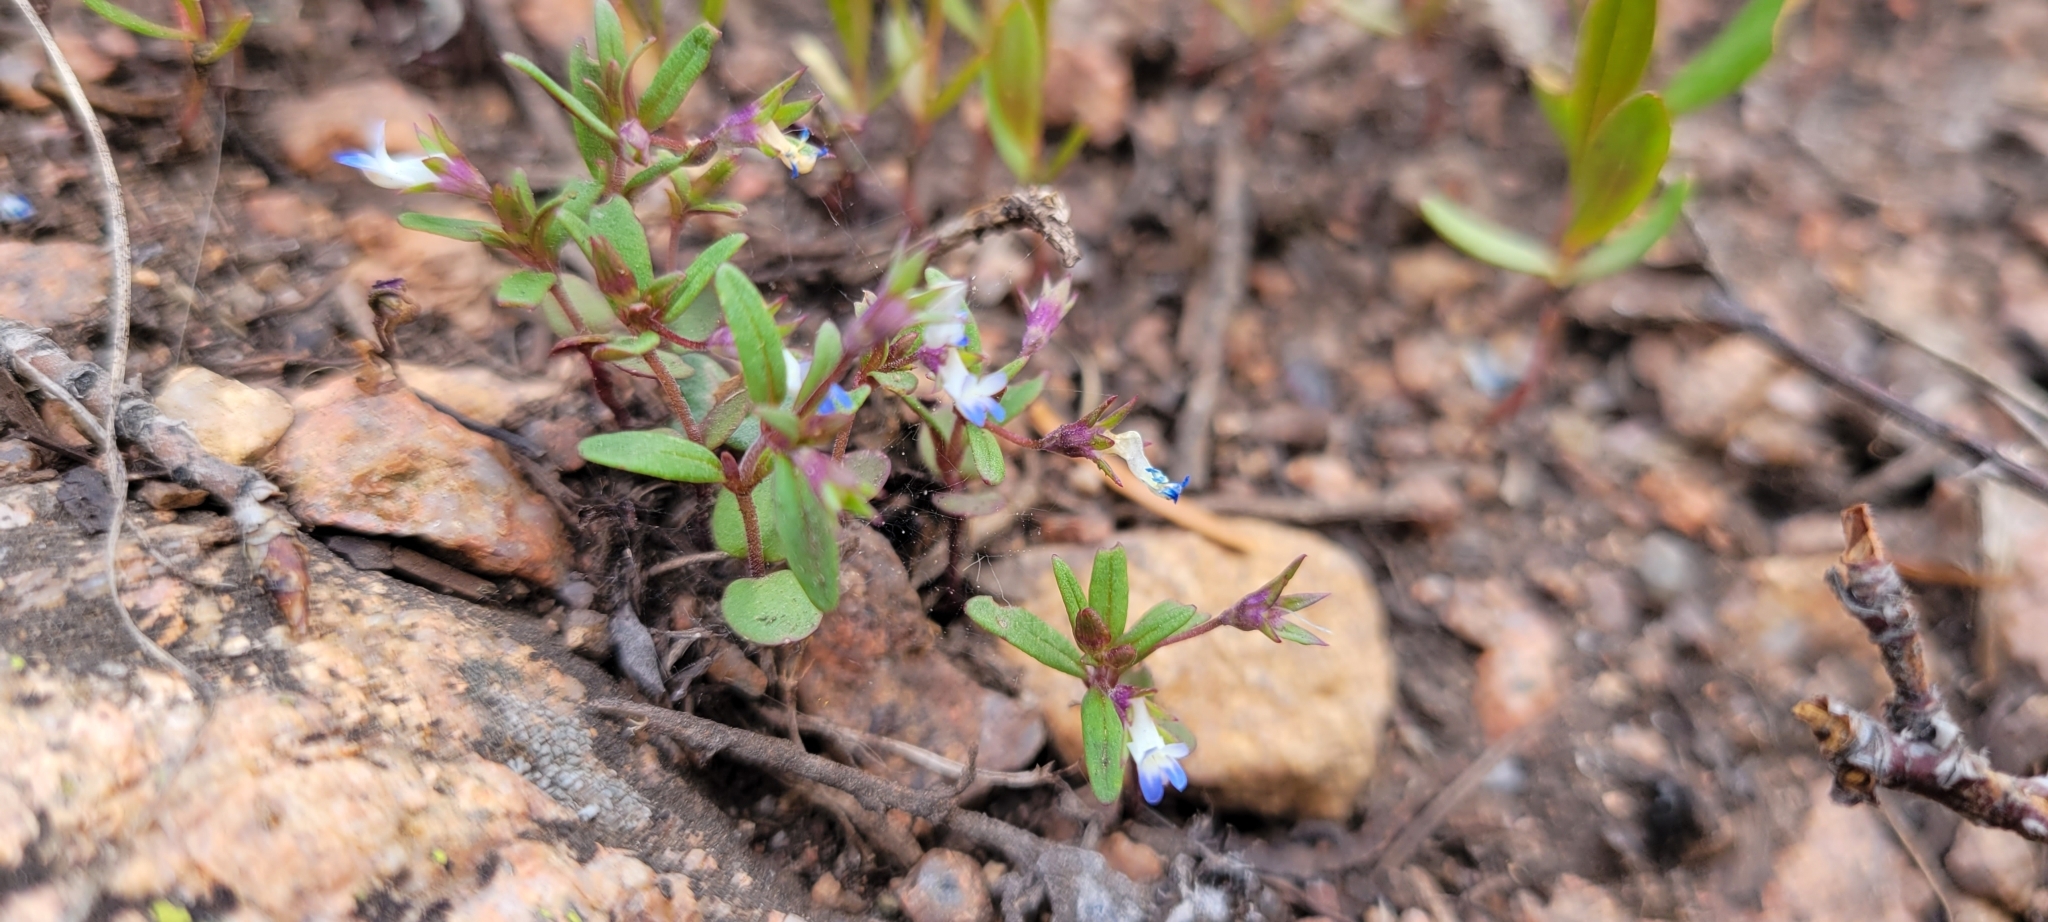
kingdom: Plantae
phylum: Tracheophyta
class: Magnoliopsida
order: Lamiales
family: Plantaginaceae
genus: Collinsia
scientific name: Collinsia parviflora
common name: Blue-lips
